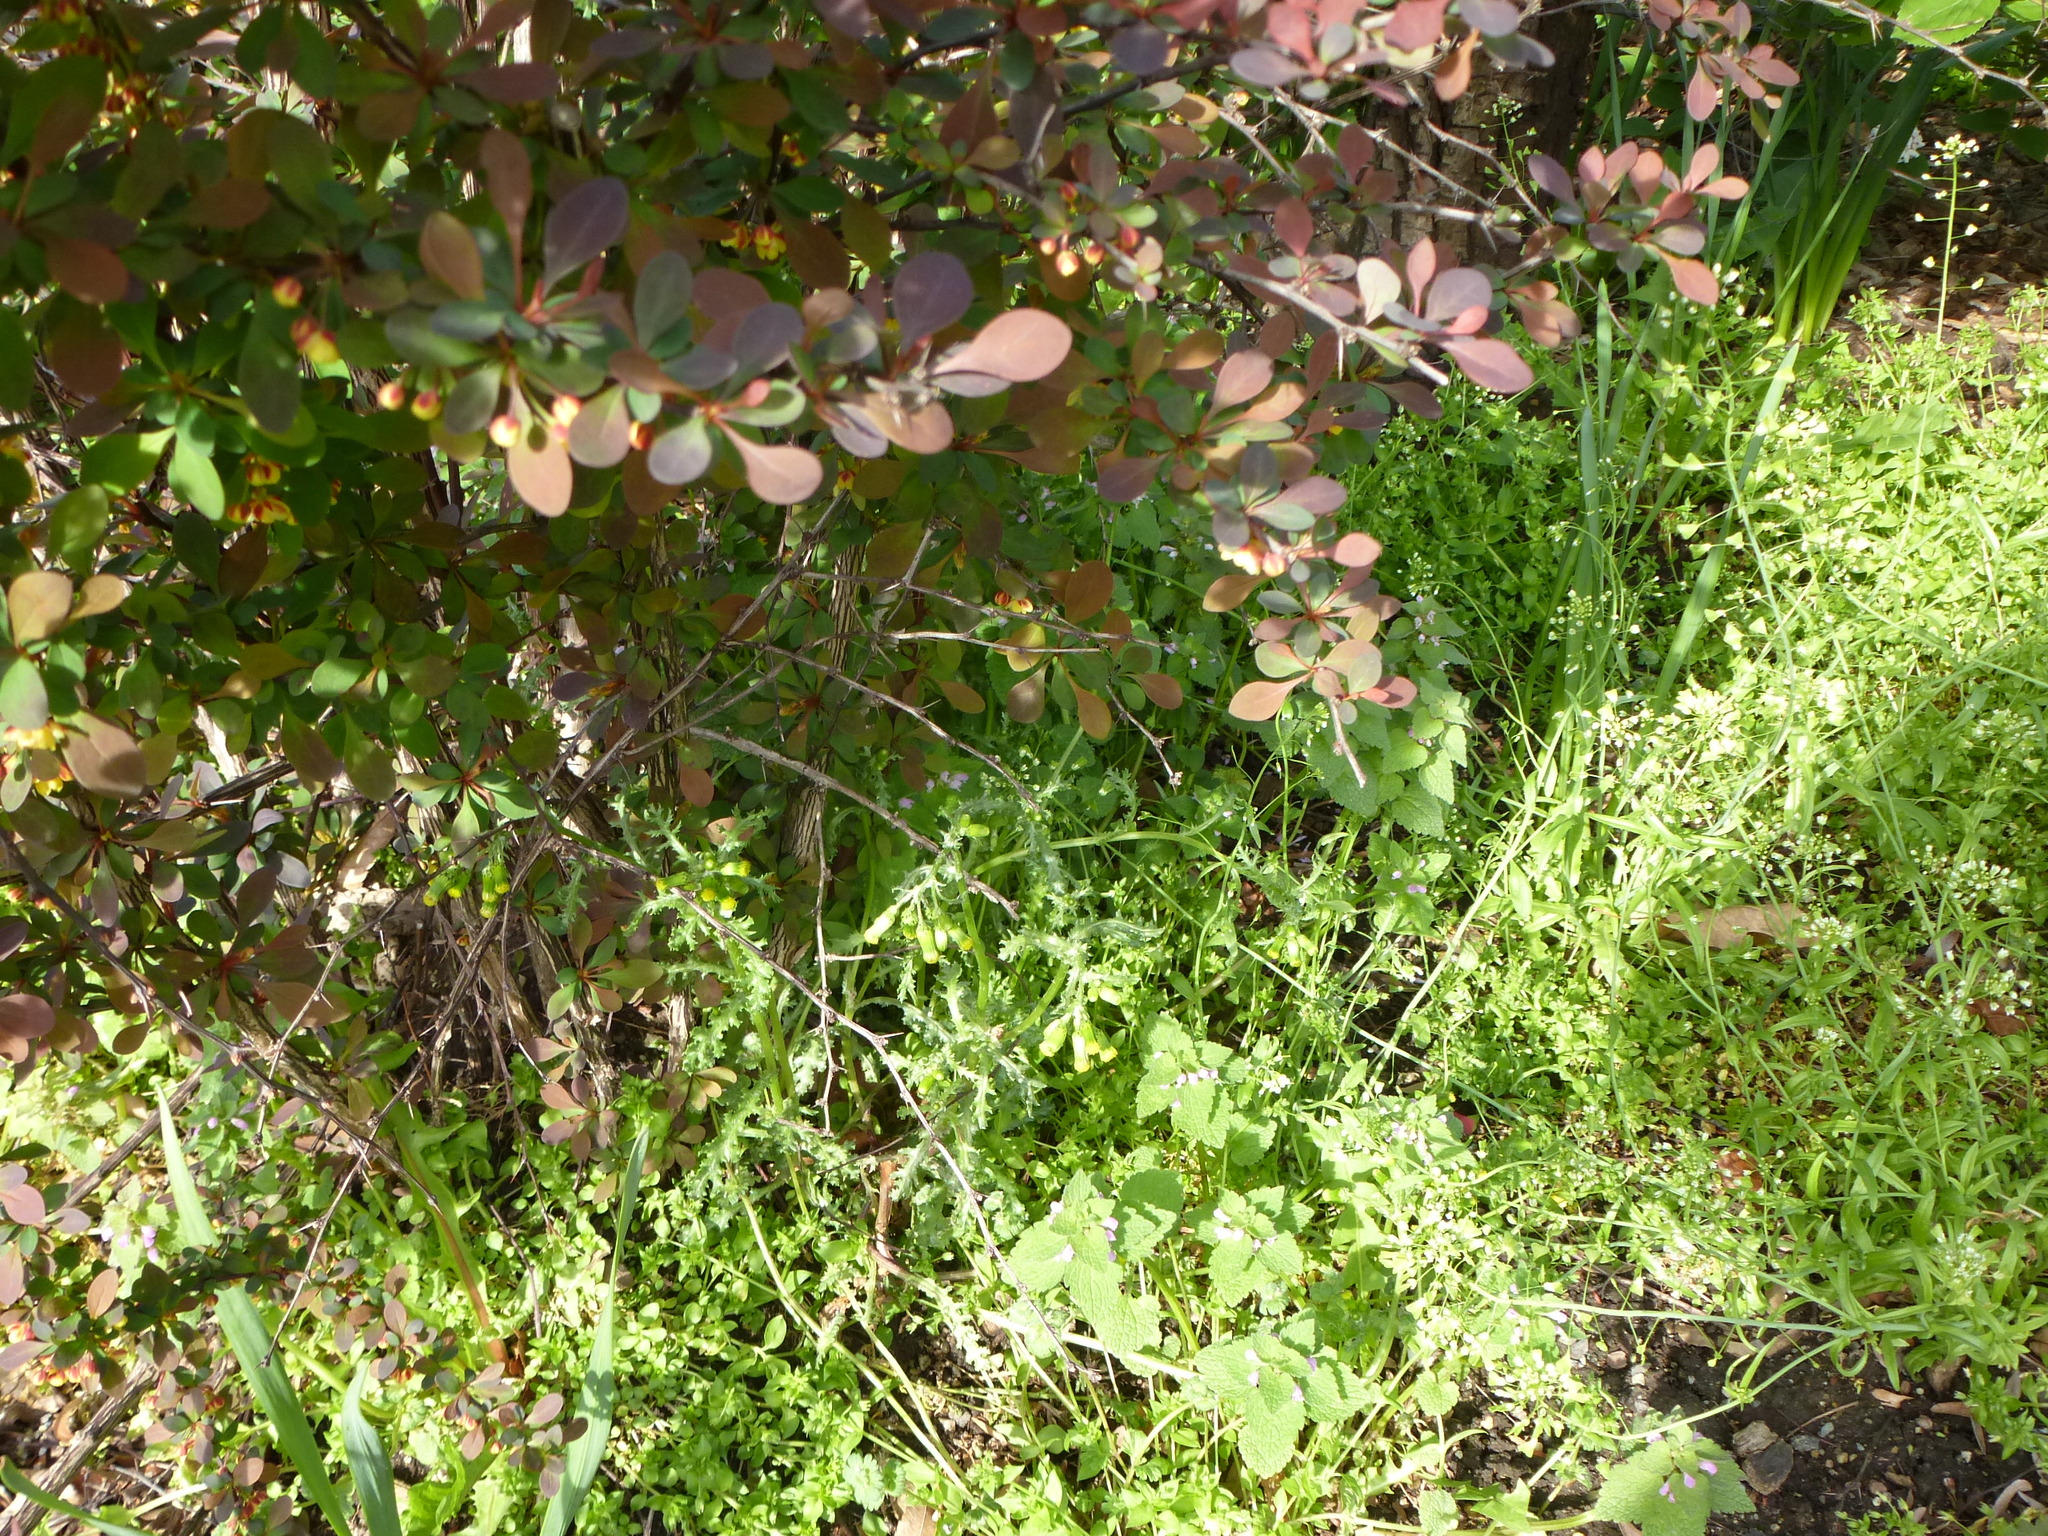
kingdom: Plantae
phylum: Tracheophyta
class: Magnoliopsida
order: Asterales
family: Asteraceae
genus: Senecio
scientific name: Senecio vulgaris
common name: Old-man-in-the-spring
